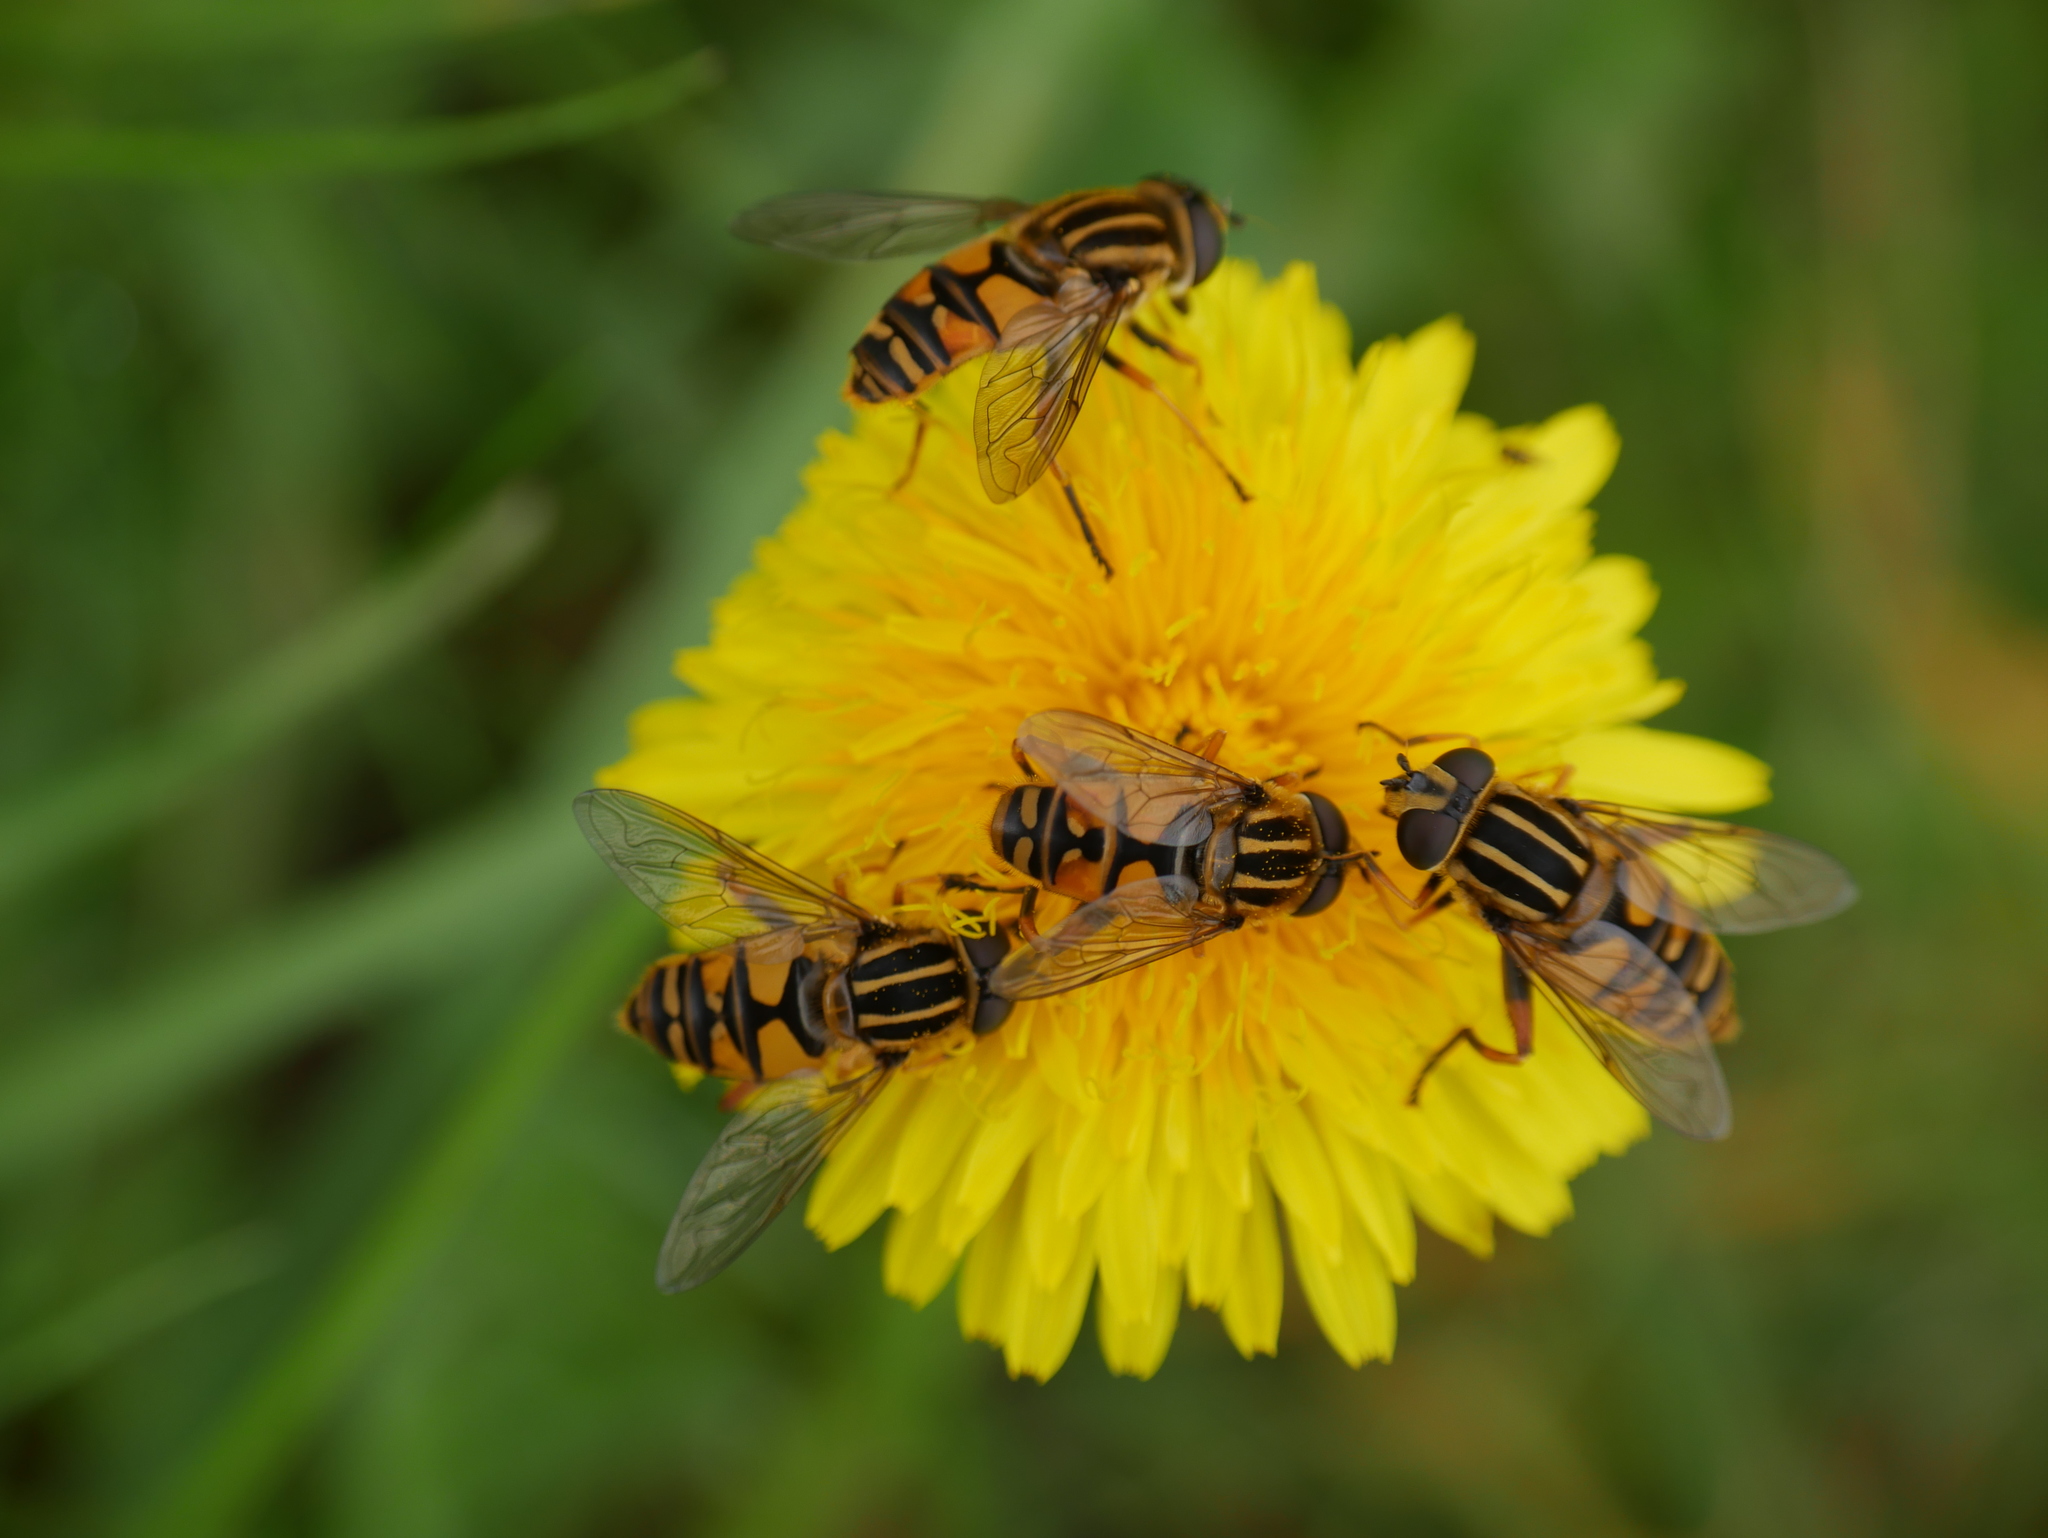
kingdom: Animalia
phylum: Arthropoda
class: Insecta
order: Diptera
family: Syrphidae
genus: Helophilus
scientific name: Helophilus pendulus
